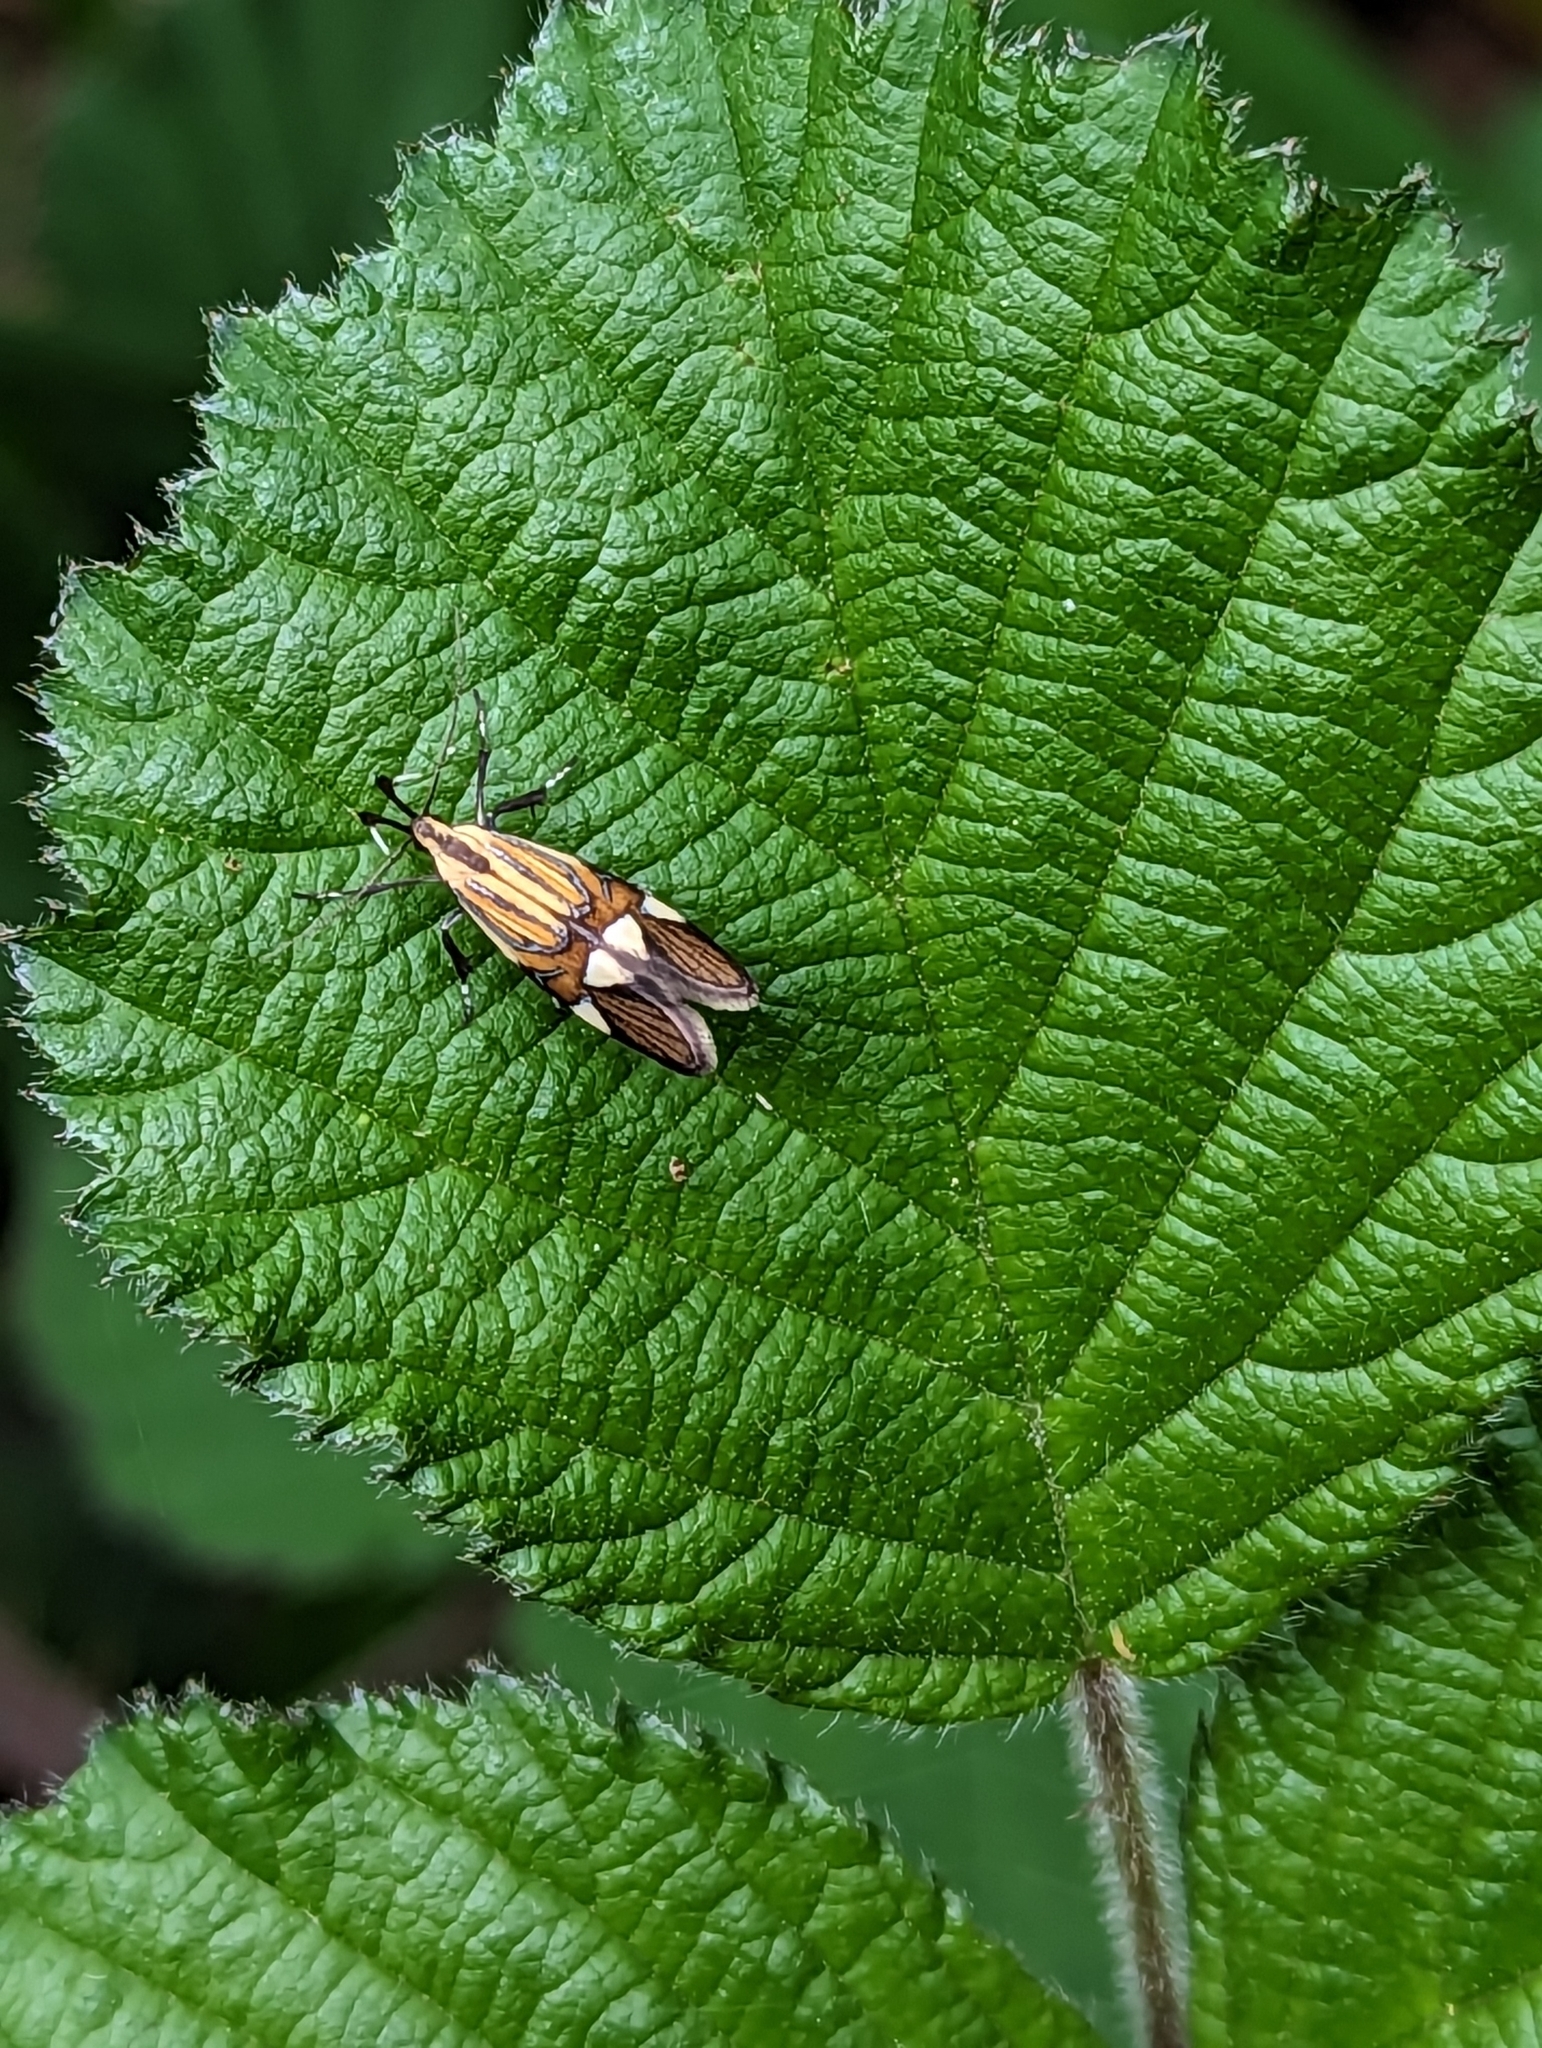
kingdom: Animalia
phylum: Arthropoda
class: Insecta
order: Lepidoptera
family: Oecophoridae
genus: Oecophora
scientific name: Oecophora Alabonia geoffrella
